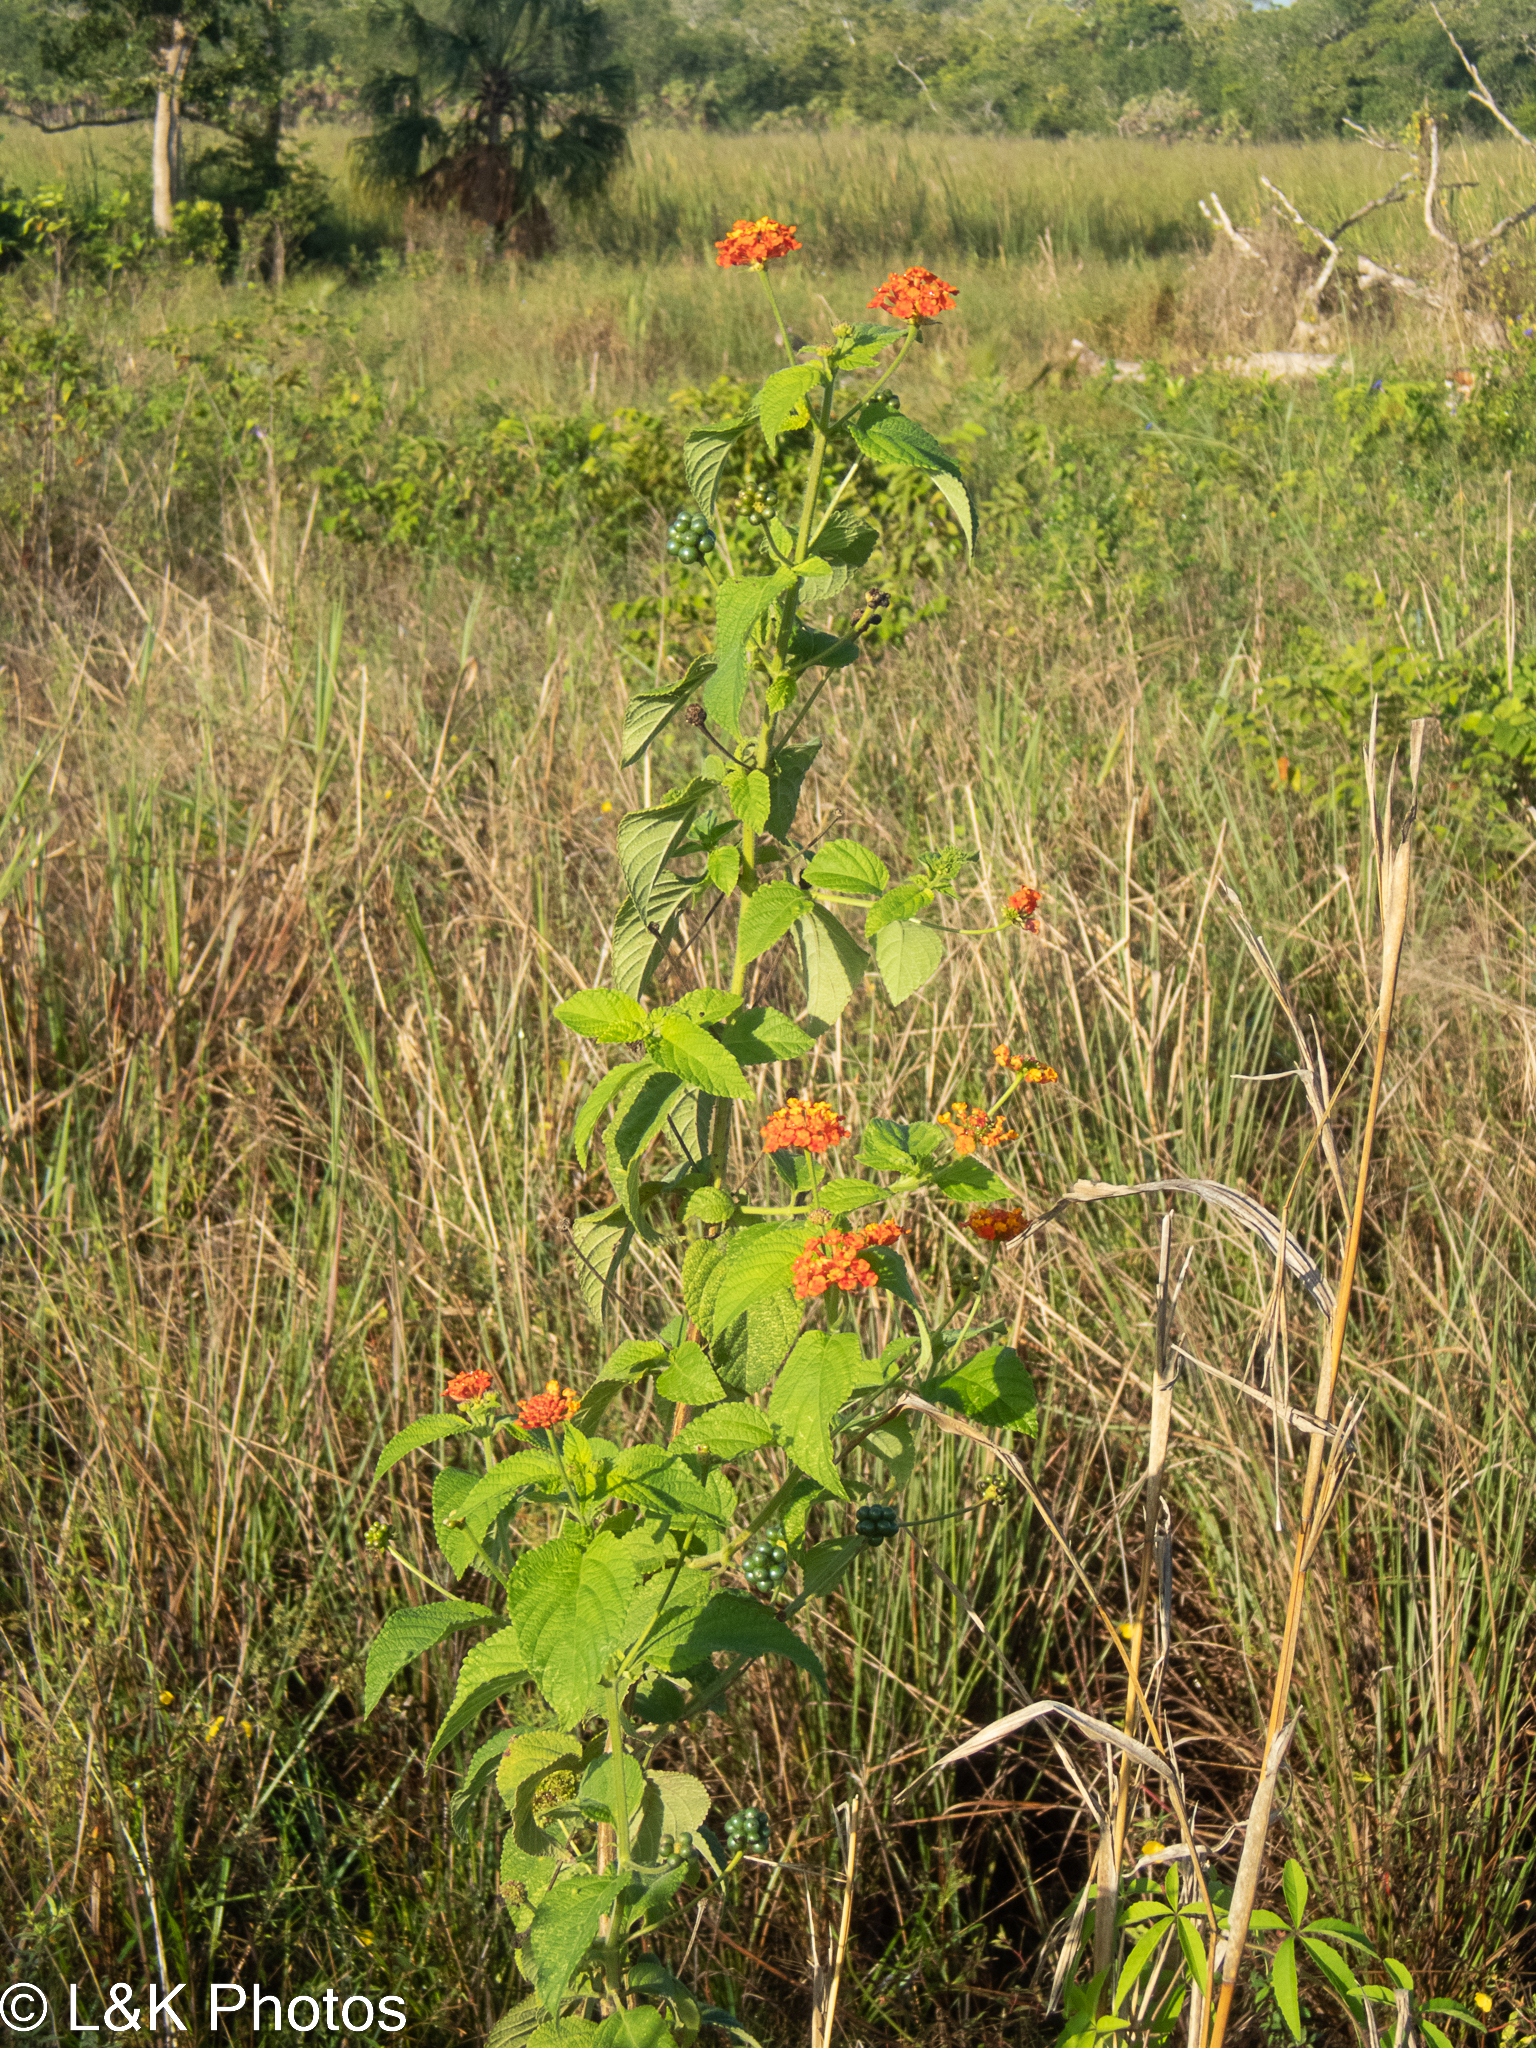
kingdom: Plantae
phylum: Tracheophyta
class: Magnoliopsida
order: Lamiales
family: Verbenaceae
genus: Lantana
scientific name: Lantana camara
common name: Lantana
